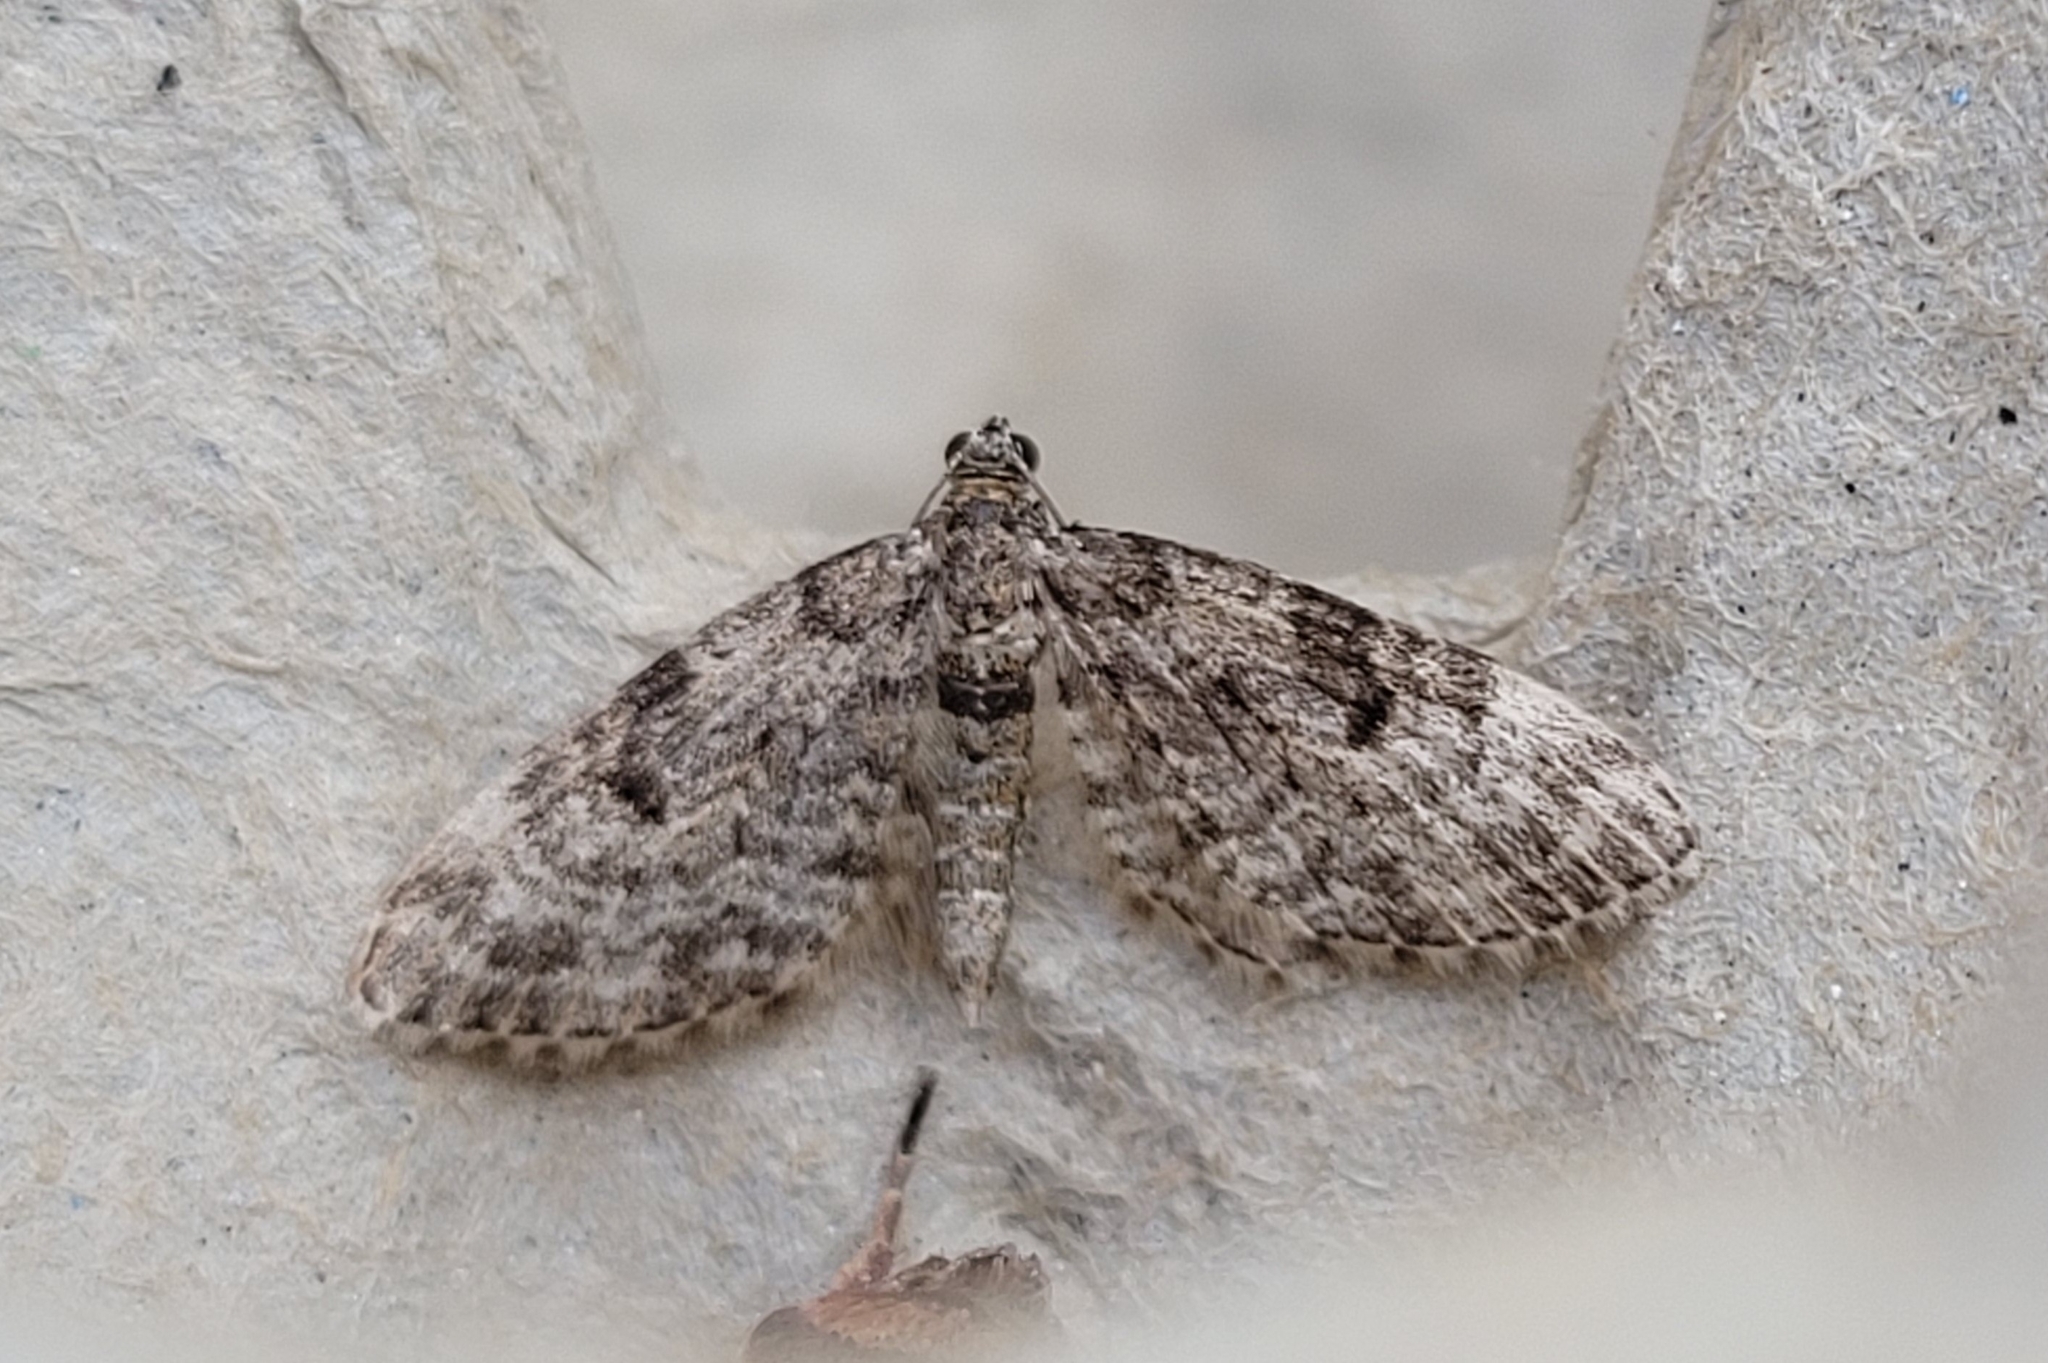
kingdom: Animalia
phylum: Arthropoda
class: Insecta
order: Lepidoptera
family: Geometridae
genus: Eupithecia
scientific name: Eupithecia tantillaria
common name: Dwarf pug
